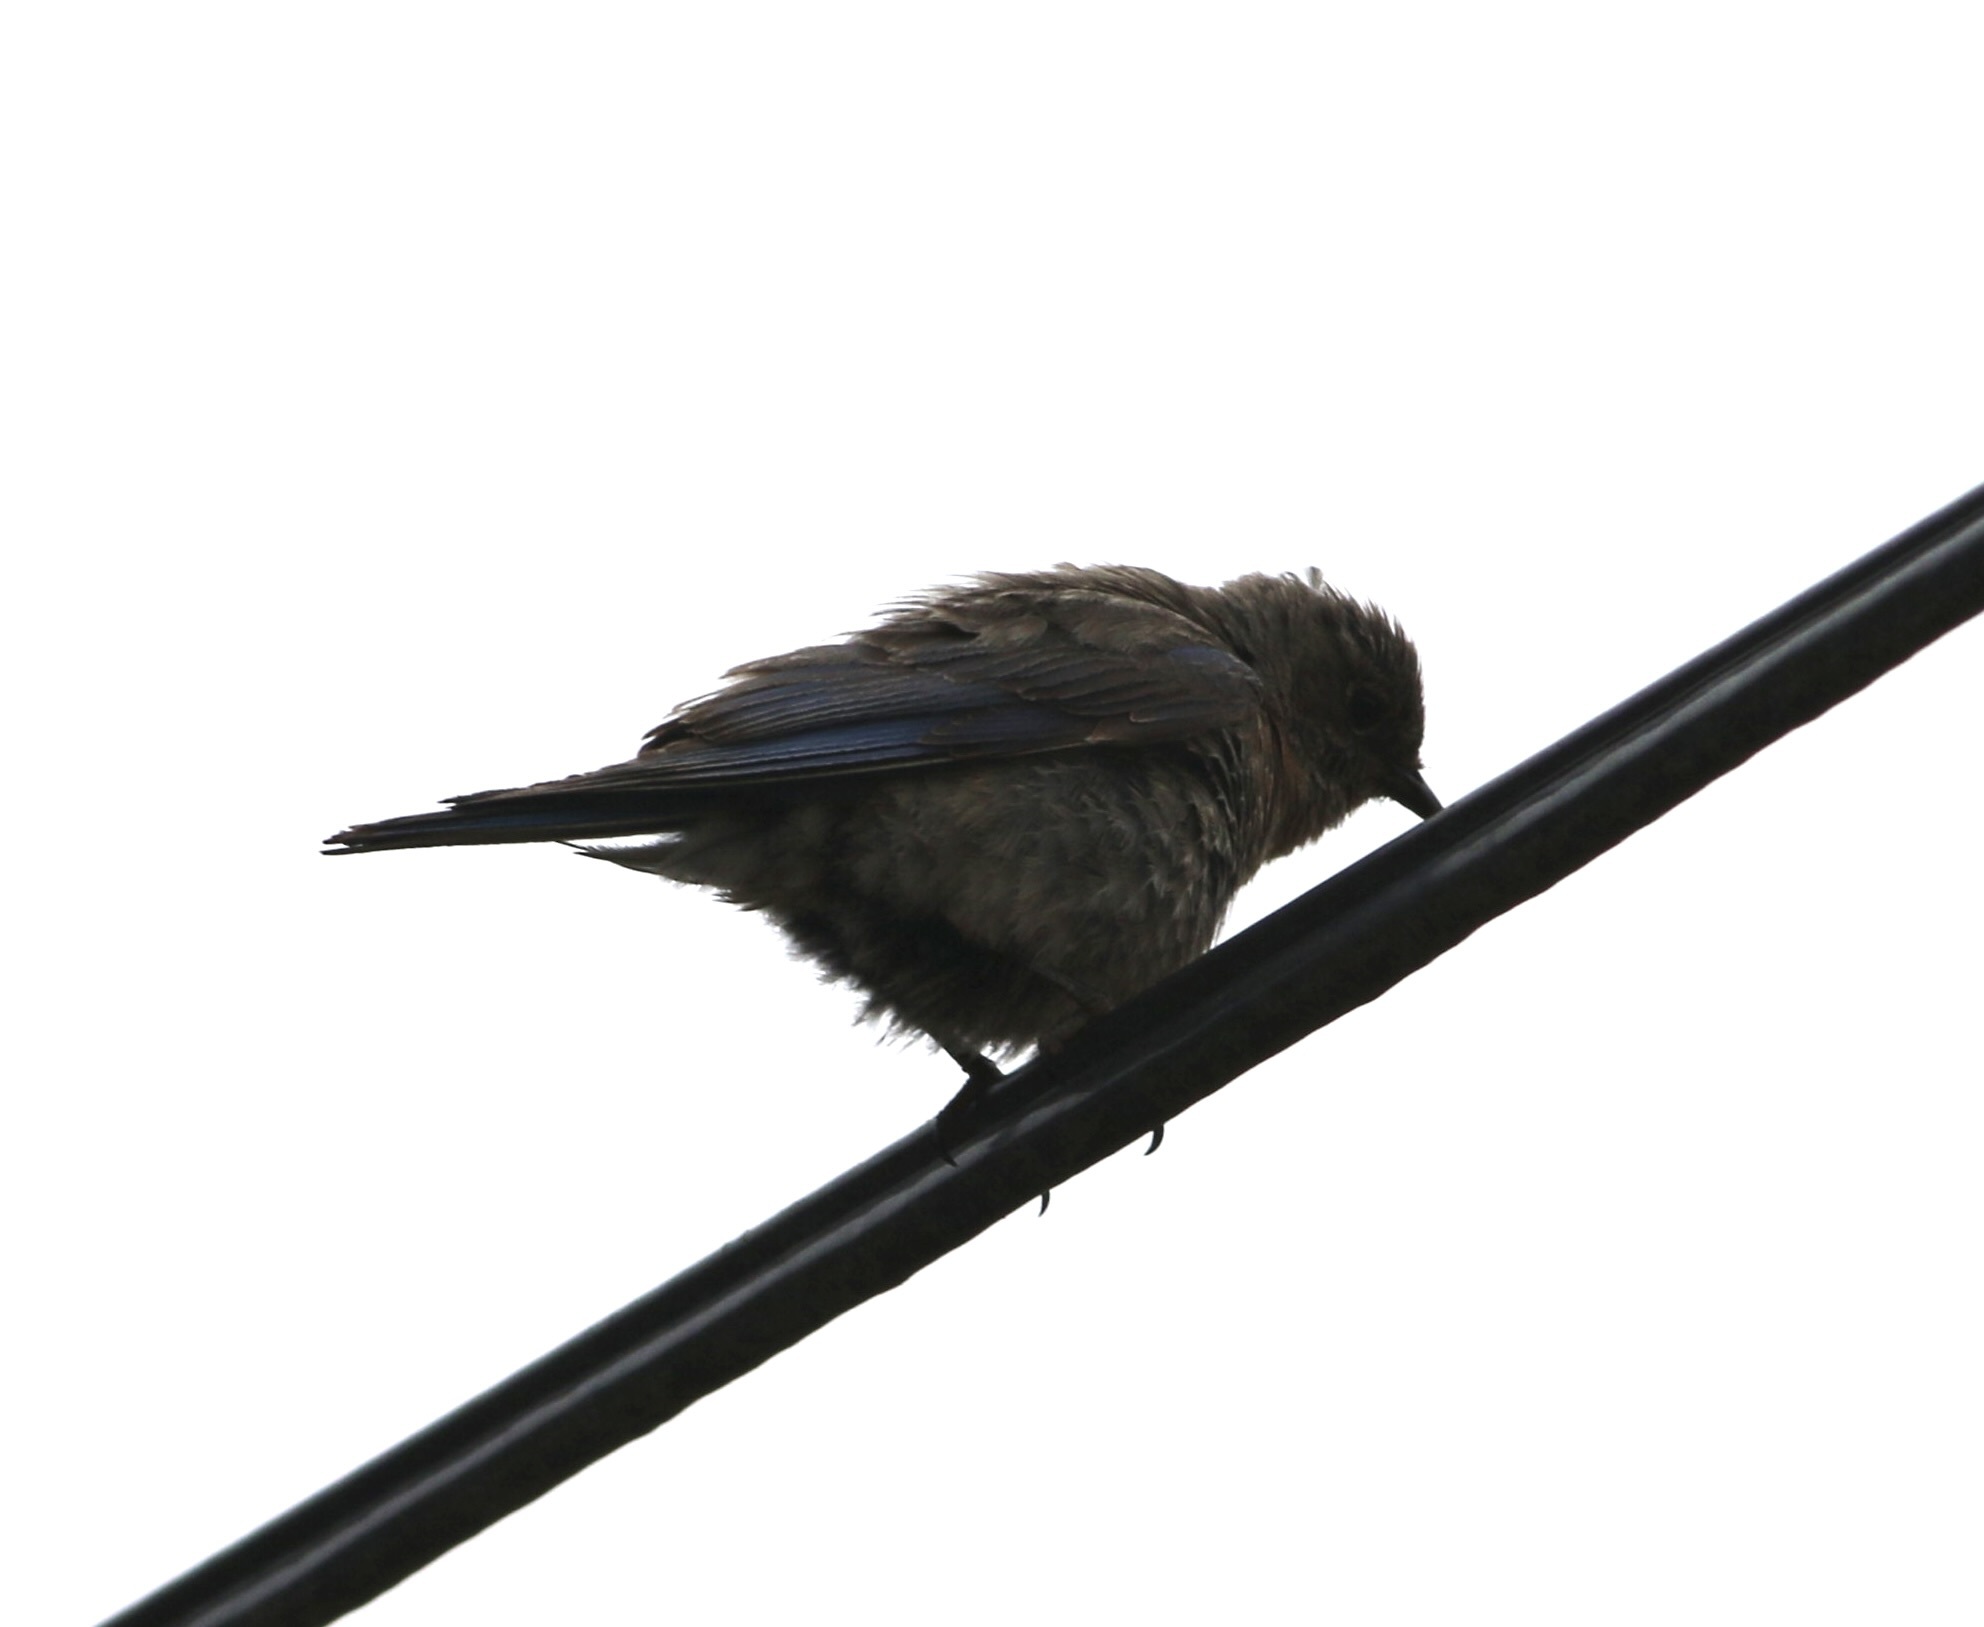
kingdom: Animalia
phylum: Chordata
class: Aves
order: Passeriformes
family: Turdidae
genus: Sialia
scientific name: Sialia mexicana
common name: Western bluebird
